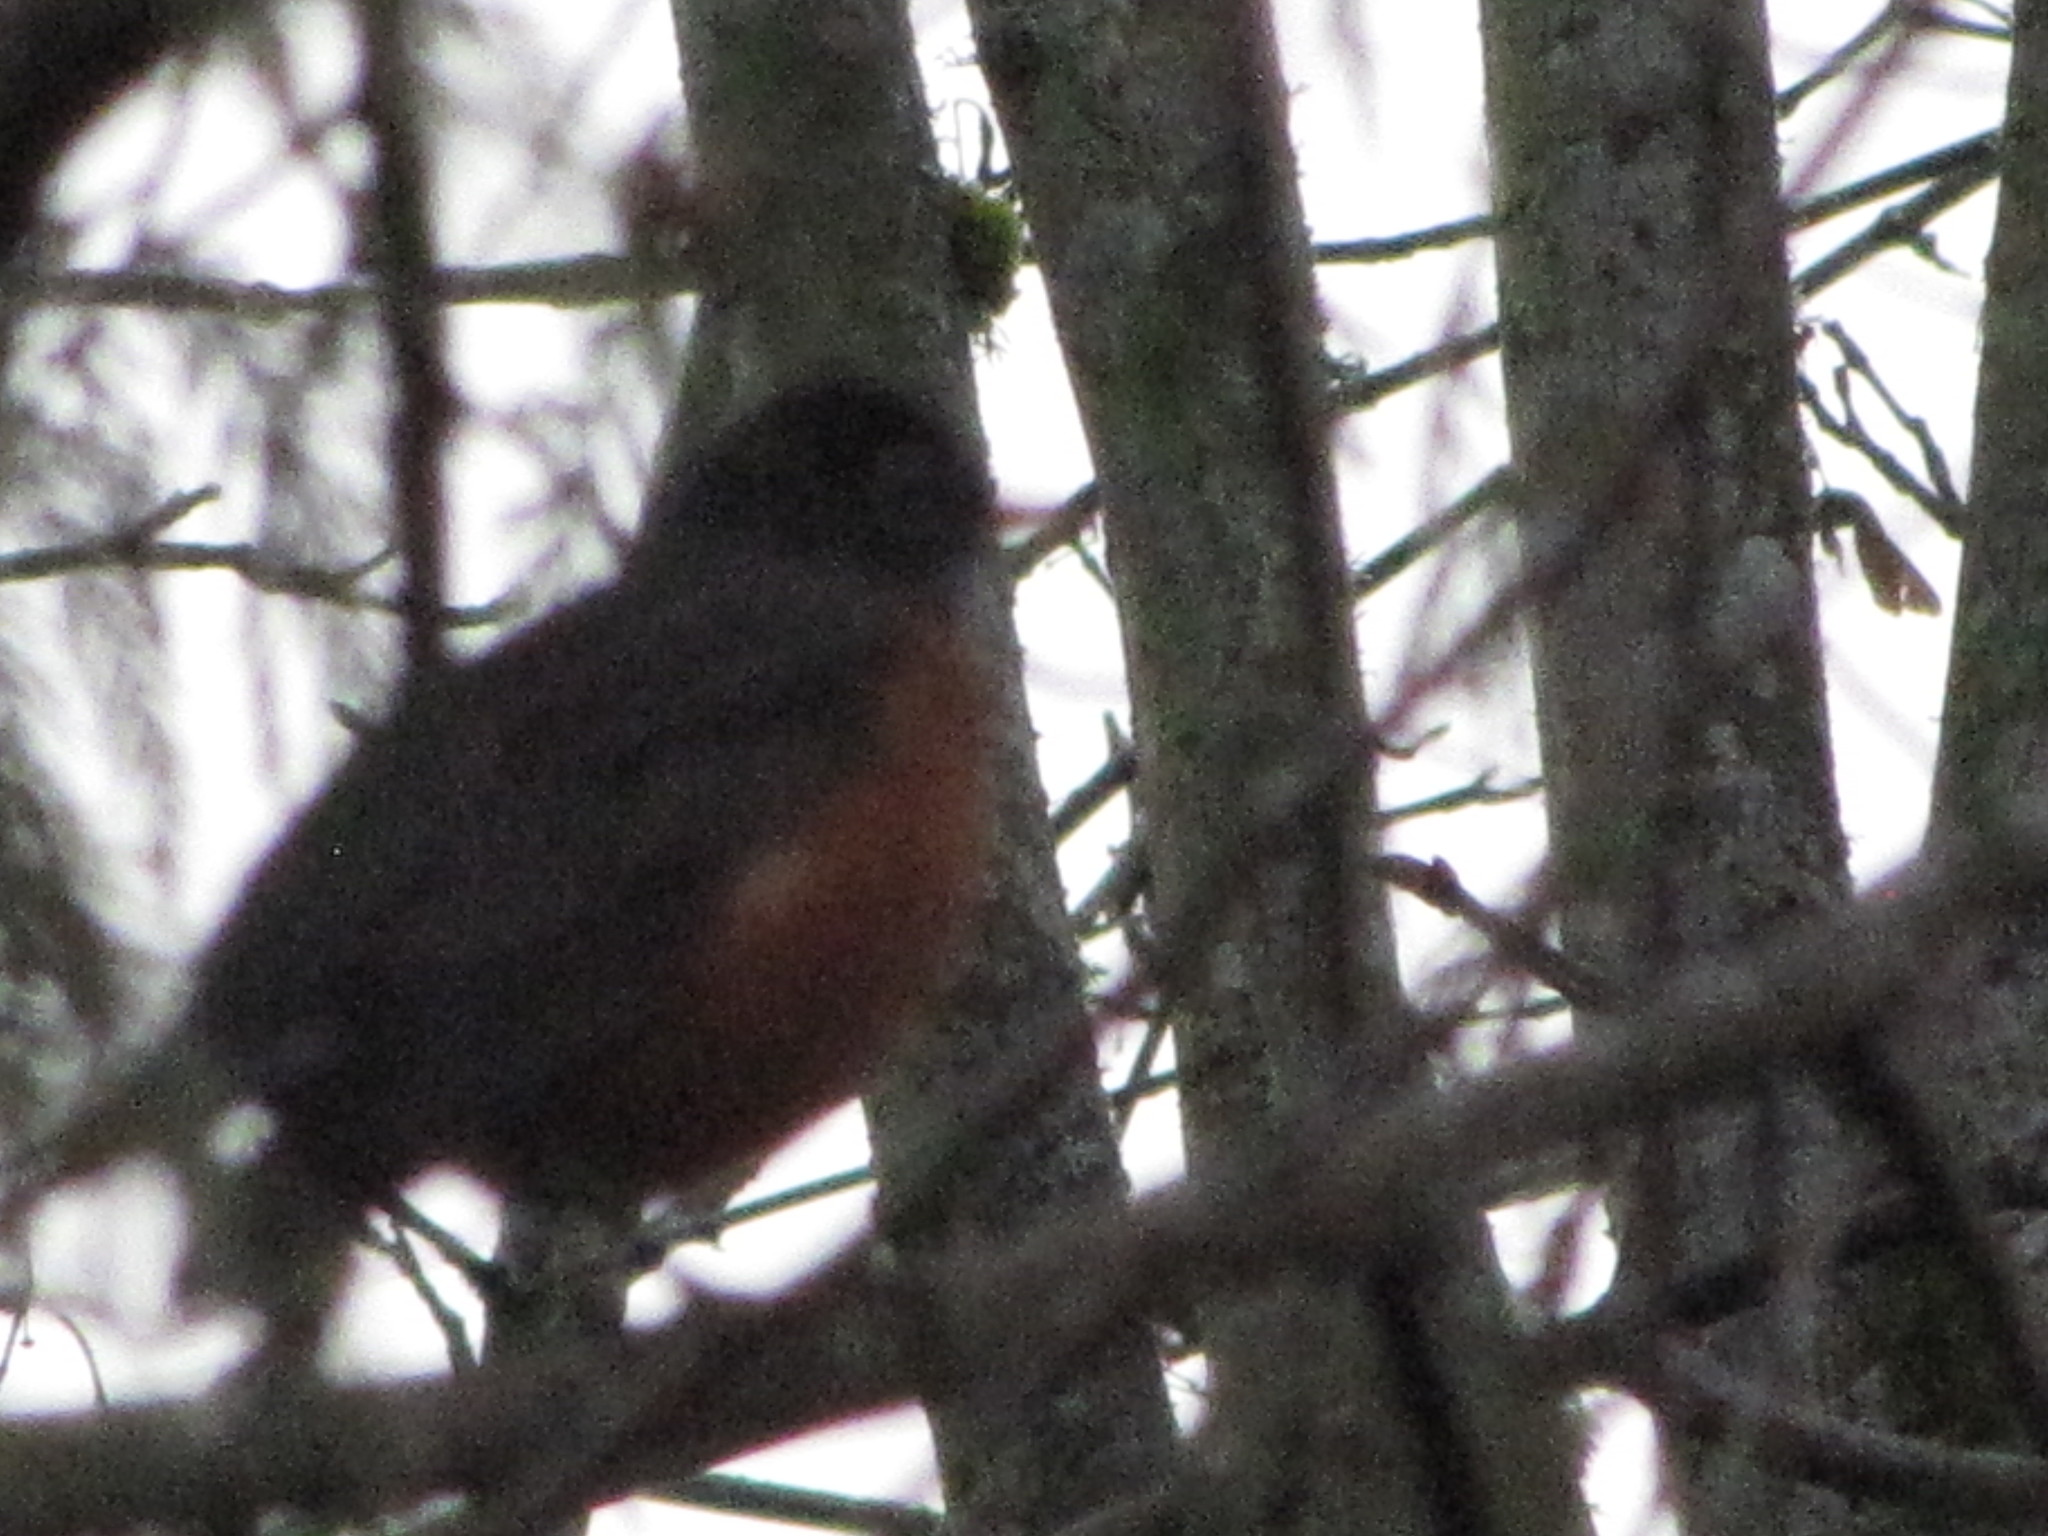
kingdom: Animalia
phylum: Chordata
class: Aves
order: Passeriformes
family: Turdidae
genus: Turdus
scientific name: Turdus migratorius
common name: American robin
